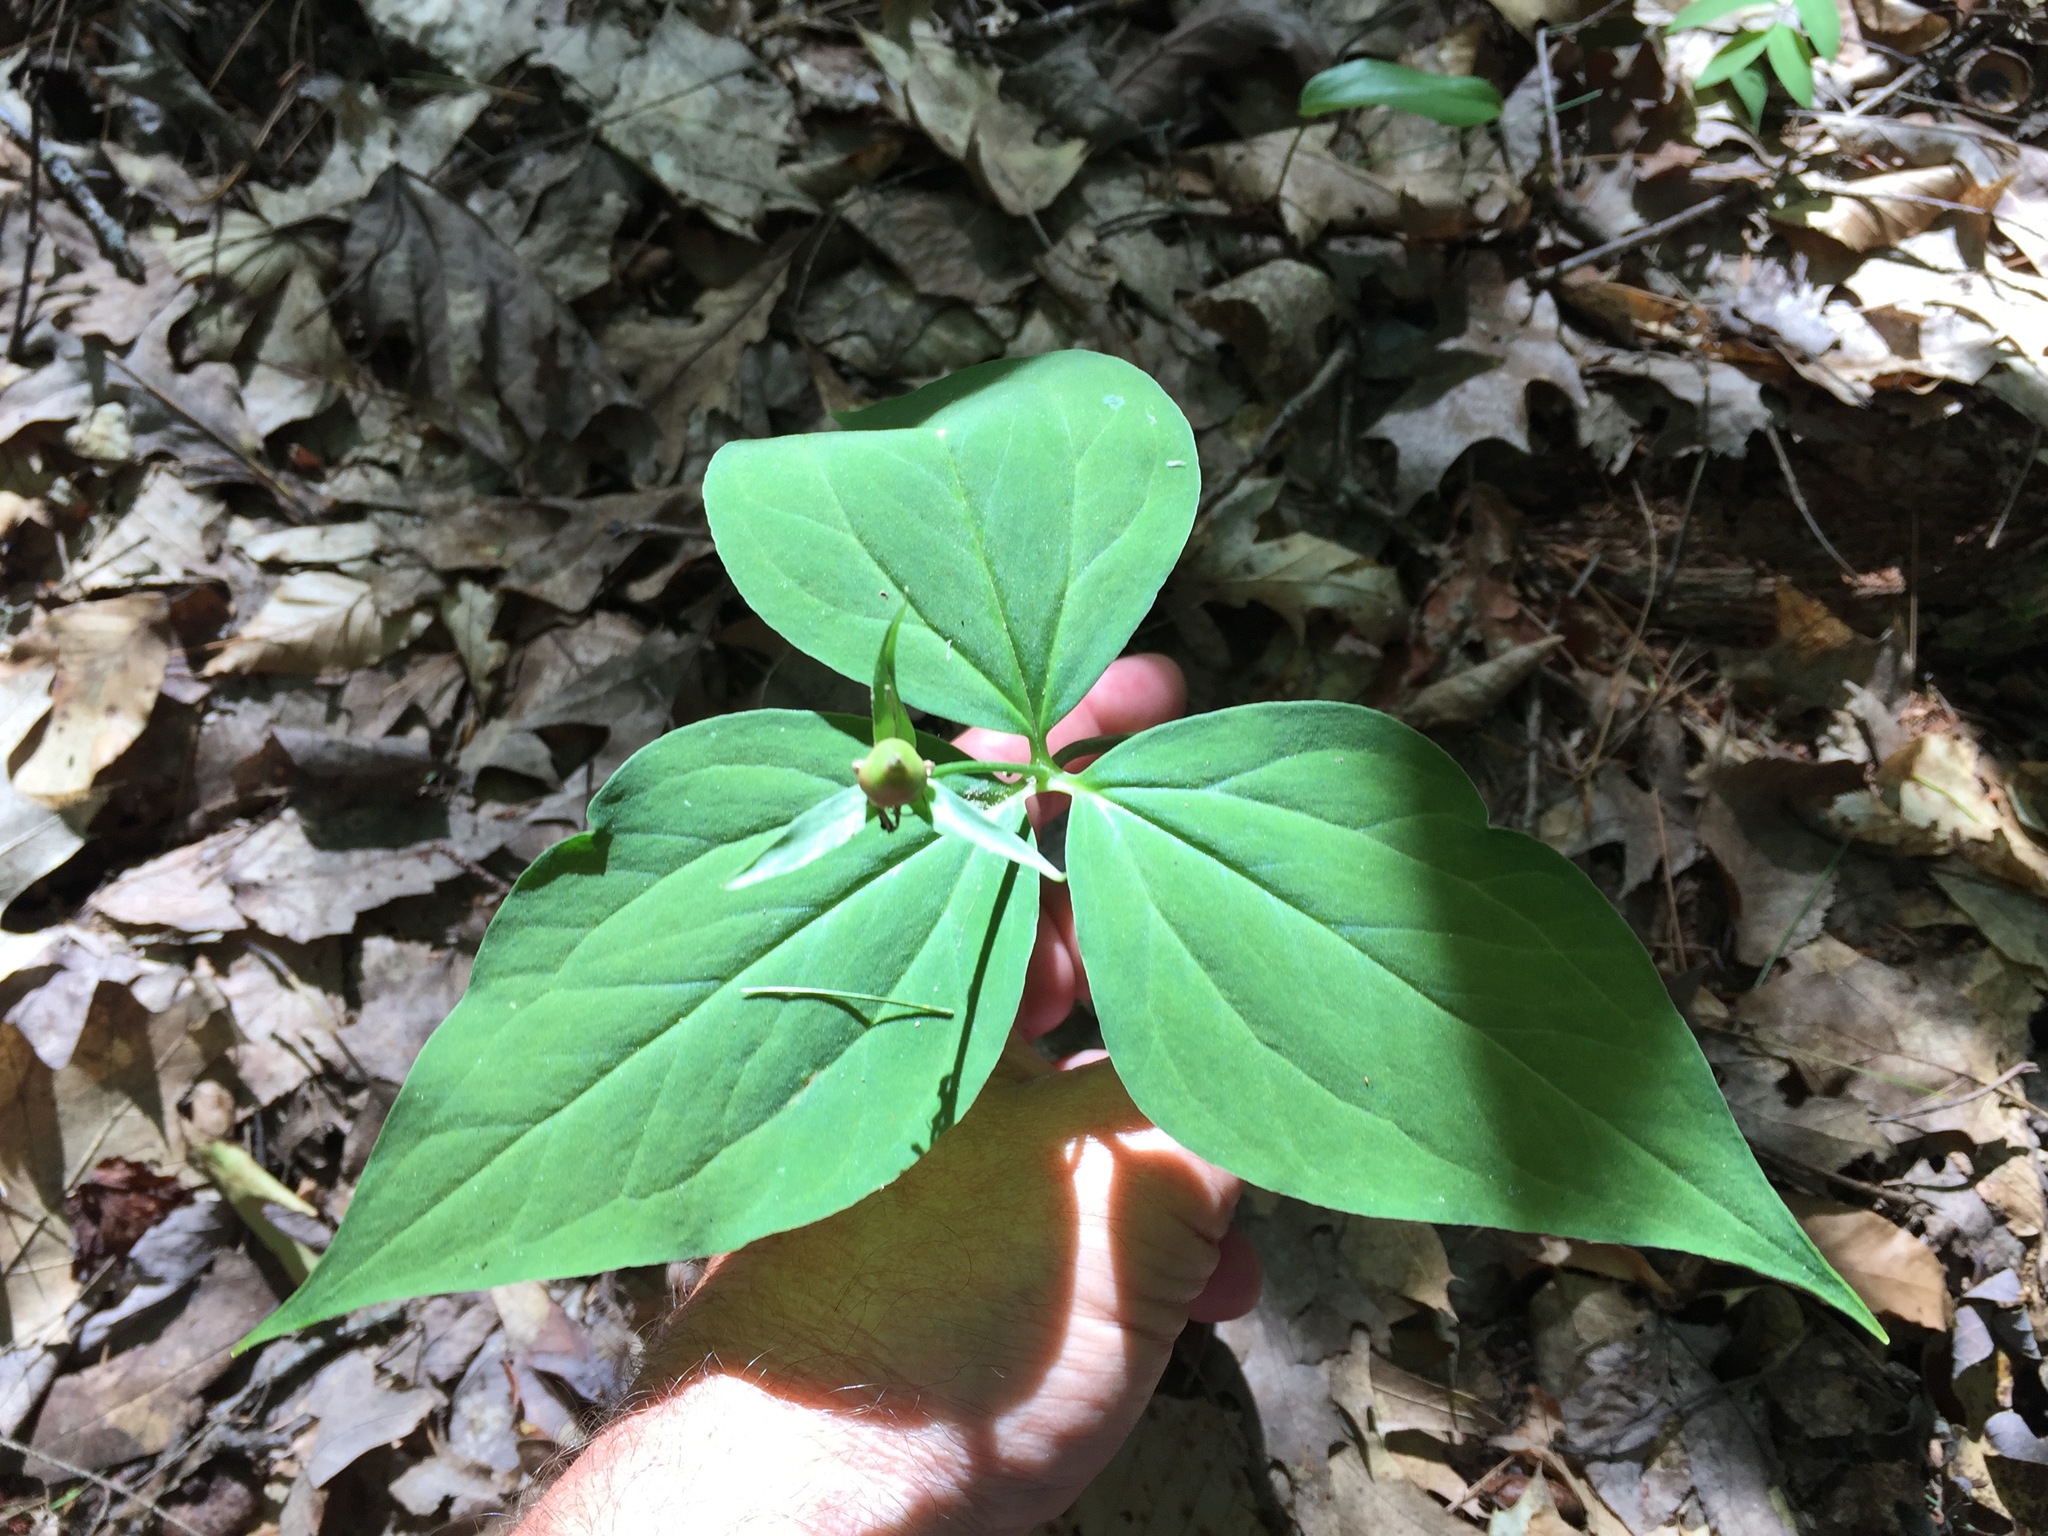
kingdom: Plantae
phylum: Tracheophyta
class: Liliopsida
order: Liliales
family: Melanthiaceae
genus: Trillium
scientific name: Trillium undulatum
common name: Paint trillium
